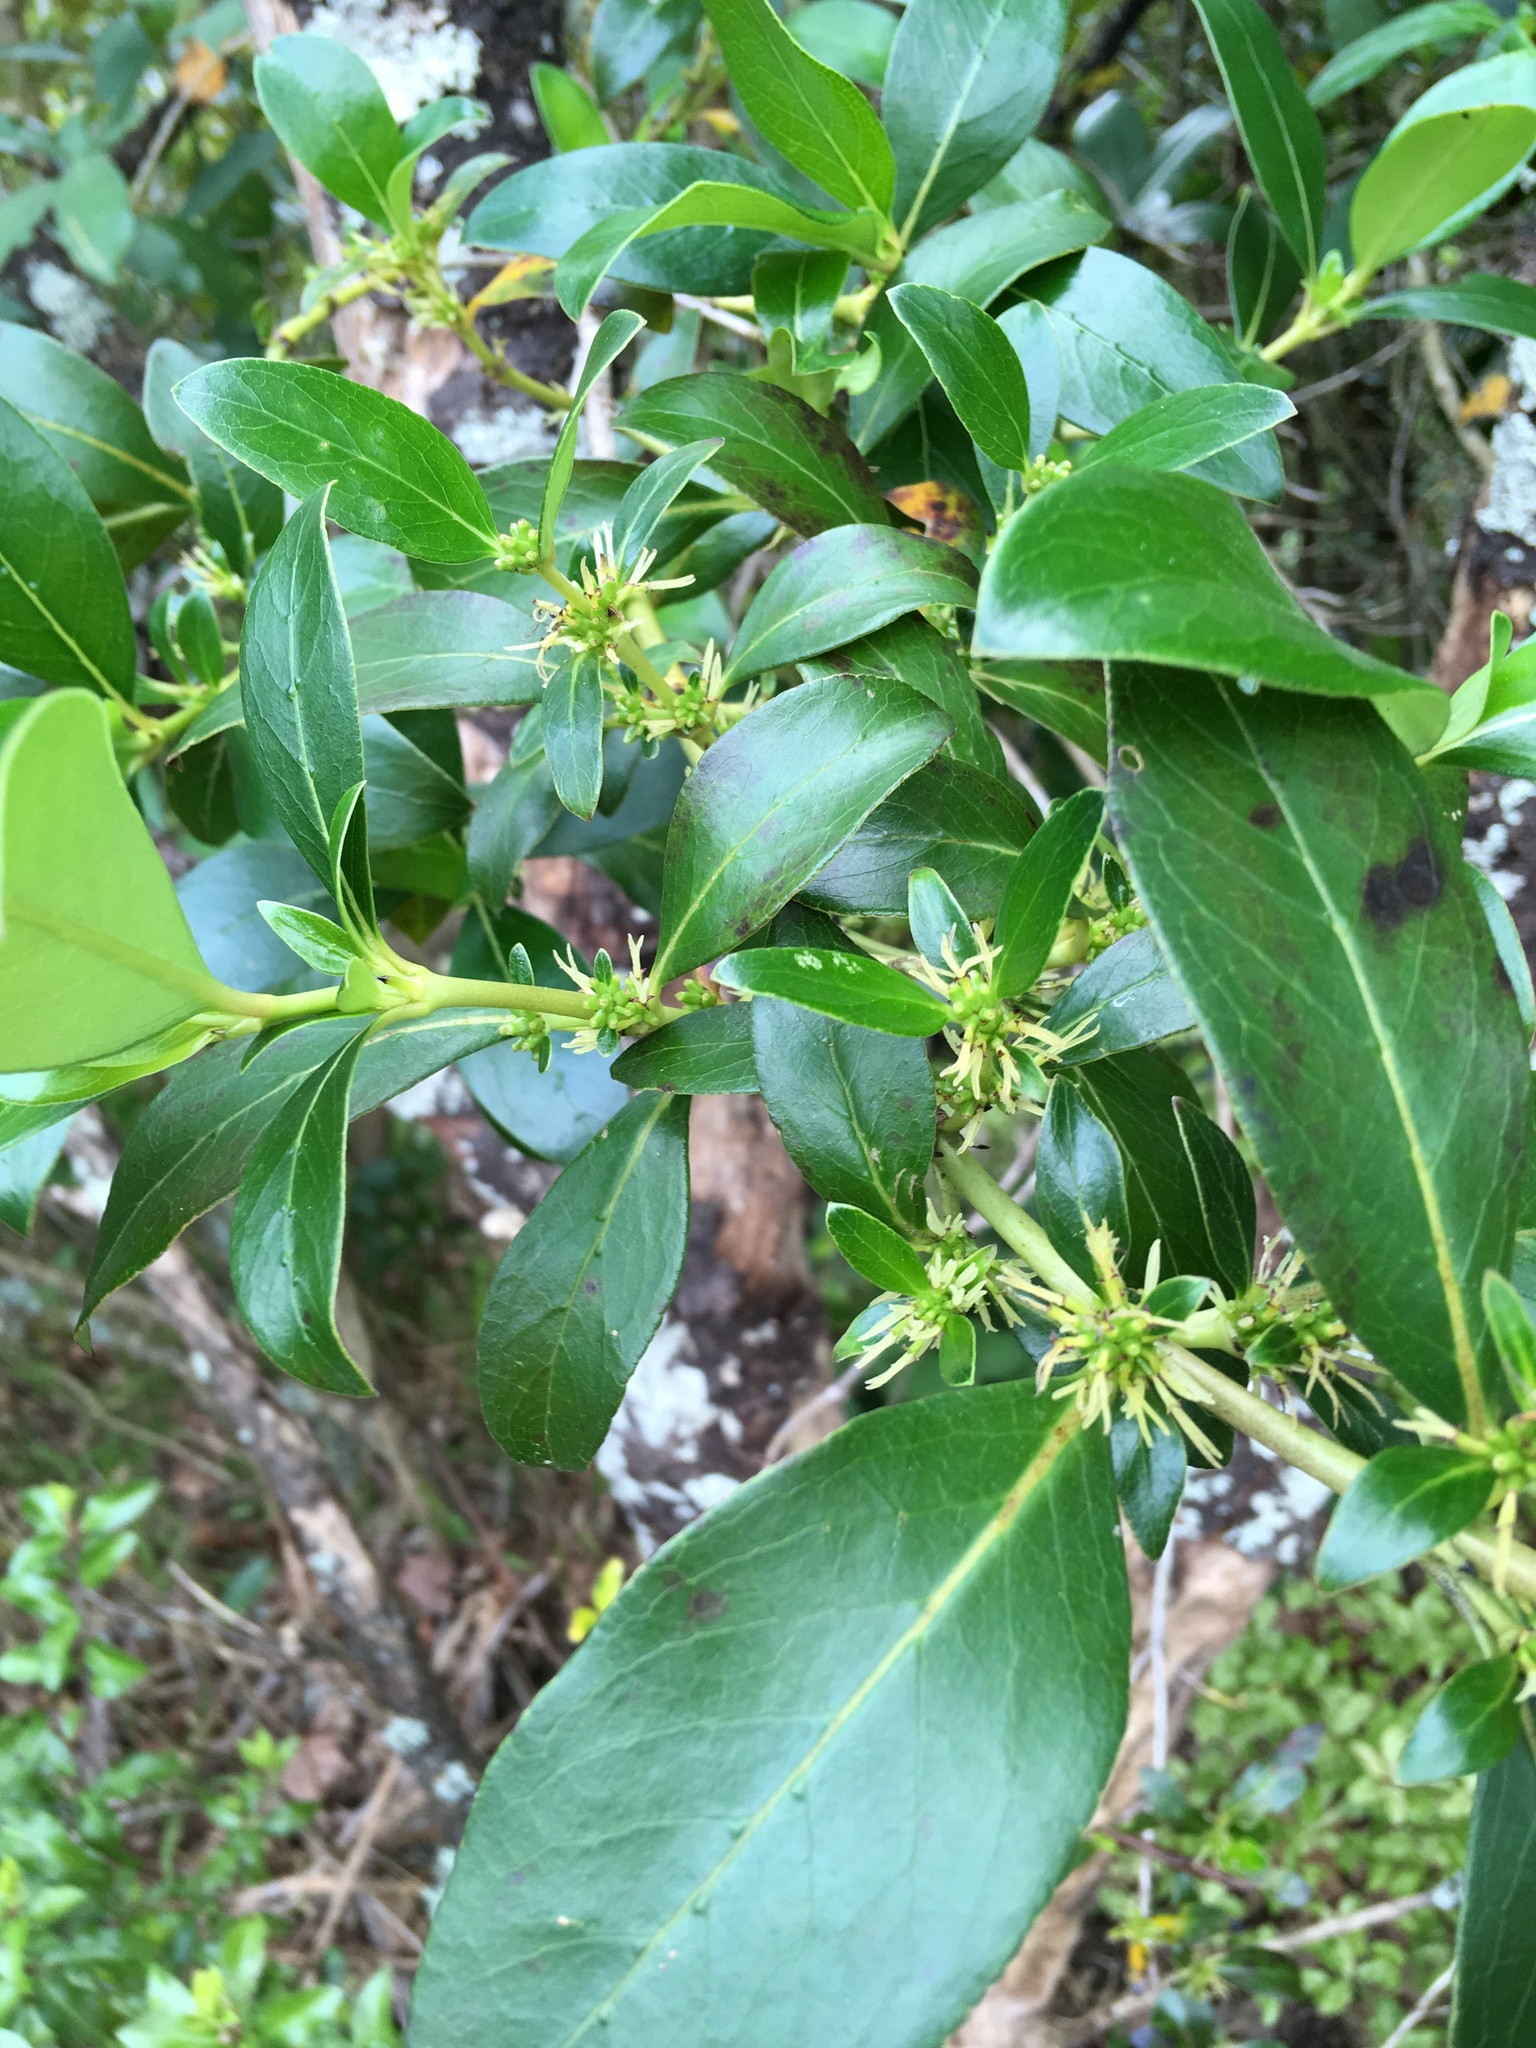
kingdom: Plantae
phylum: Tracheophyta
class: Magnoliopsida
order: Gentianales
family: Rubiaceae
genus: Coprosma
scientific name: Coprosma robusta
